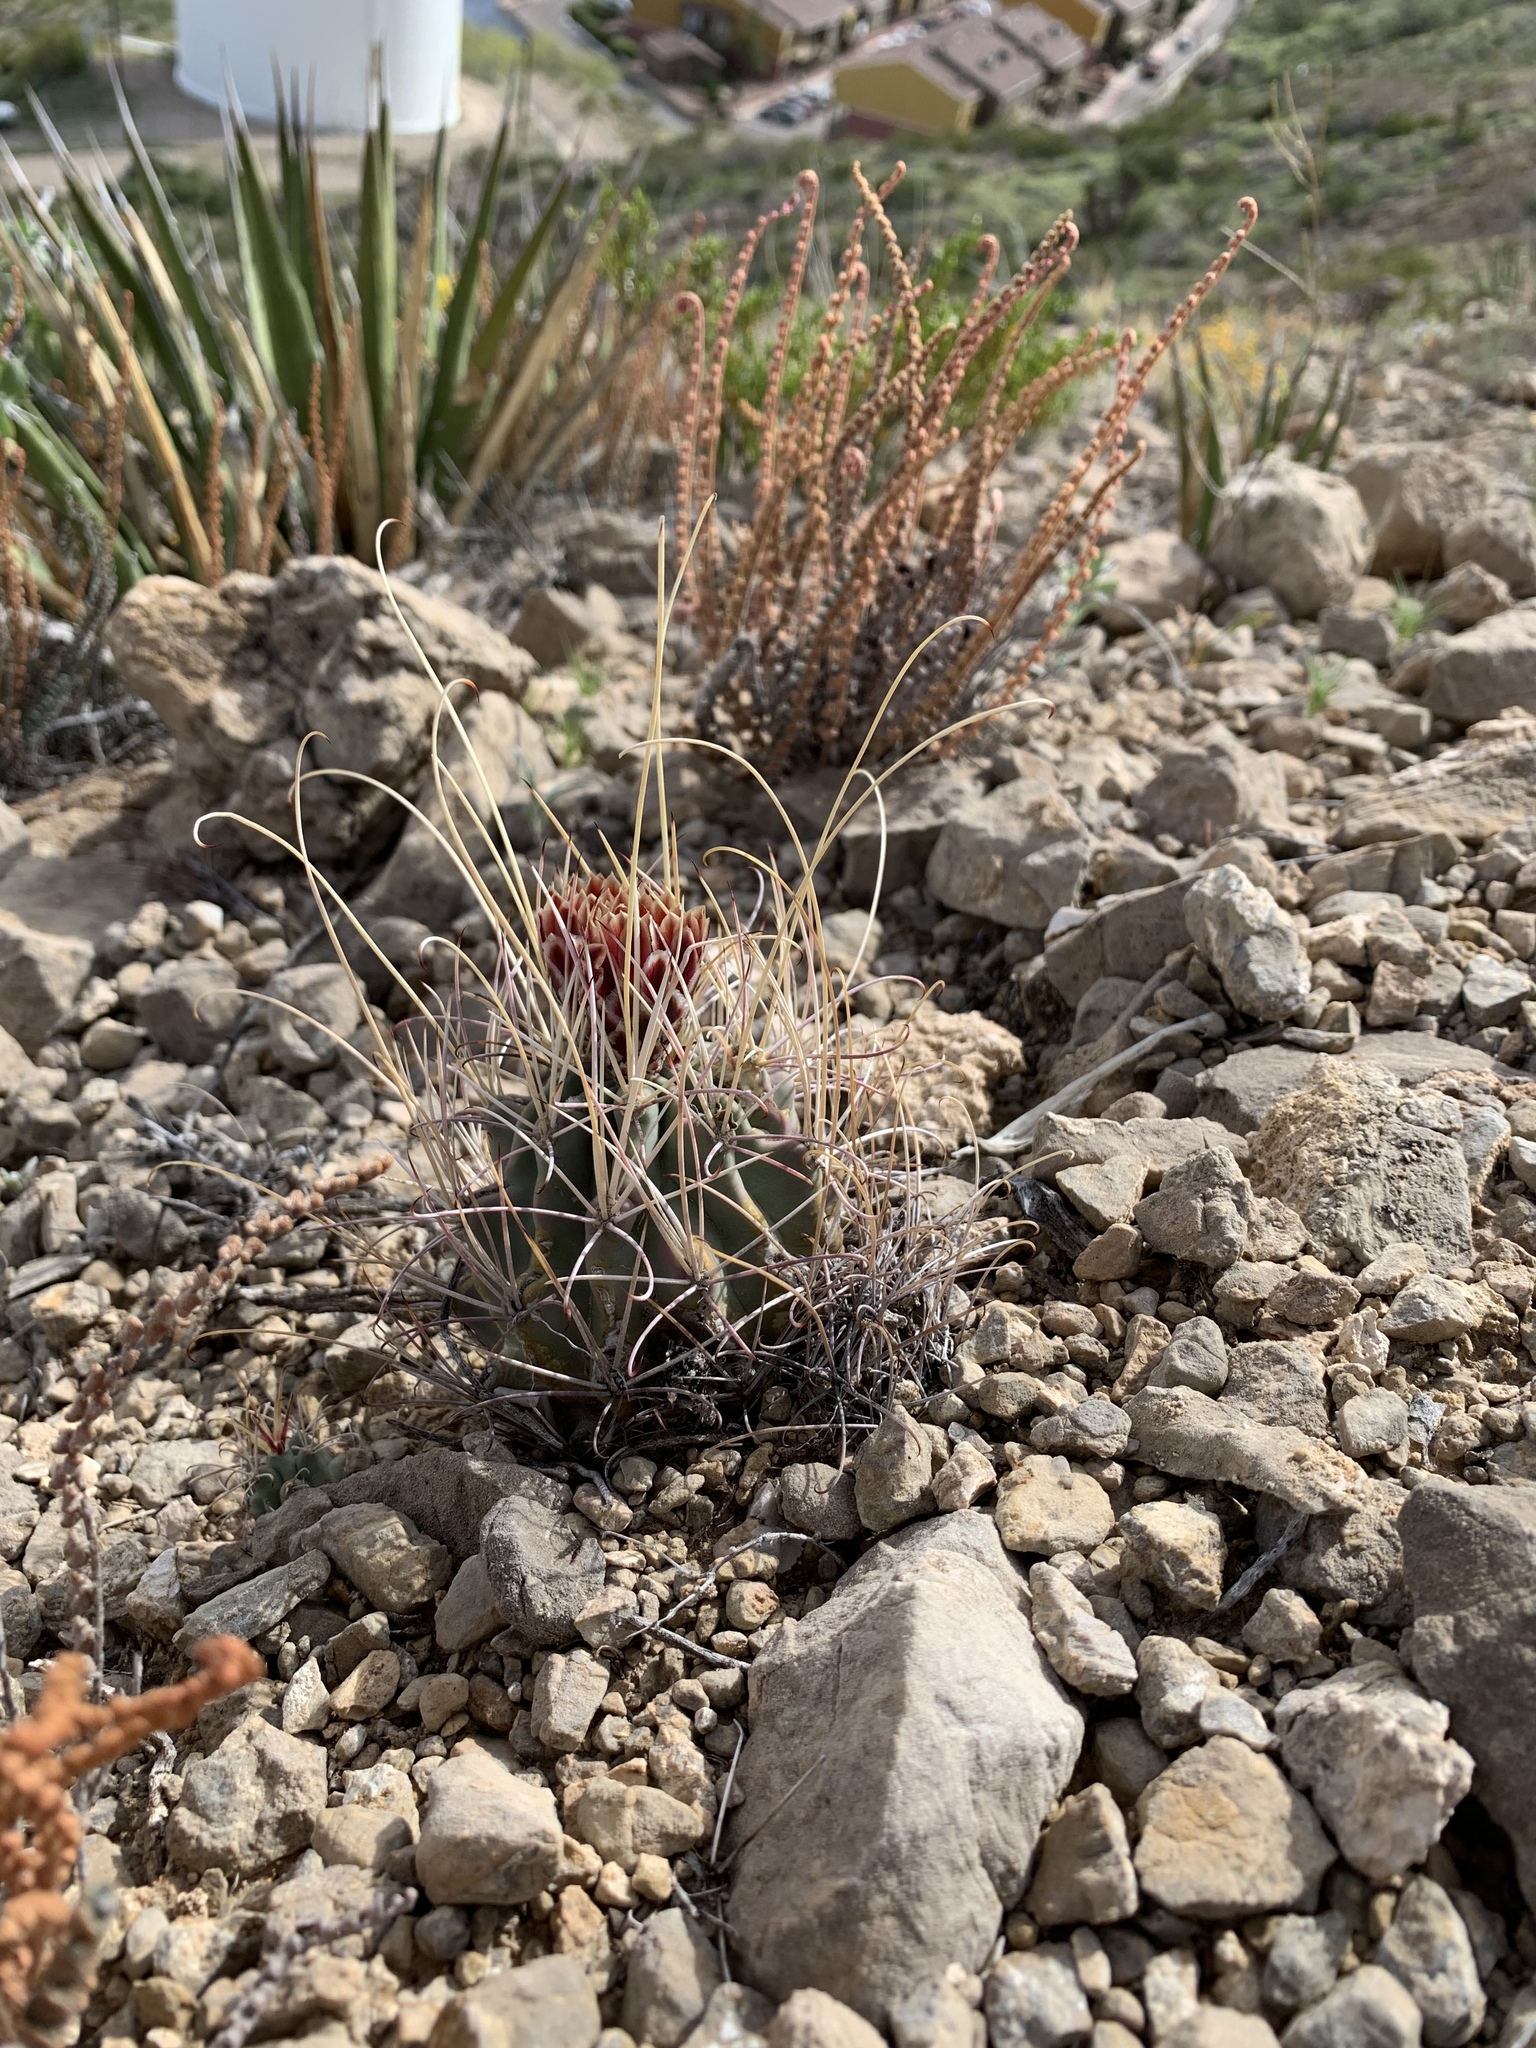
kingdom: Plantae
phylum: Tracheophyta
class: Magnoliopsida
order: Caryophyllales
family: Cactaceae
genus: Ferocactus
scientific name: Ferocactus uncinatus
